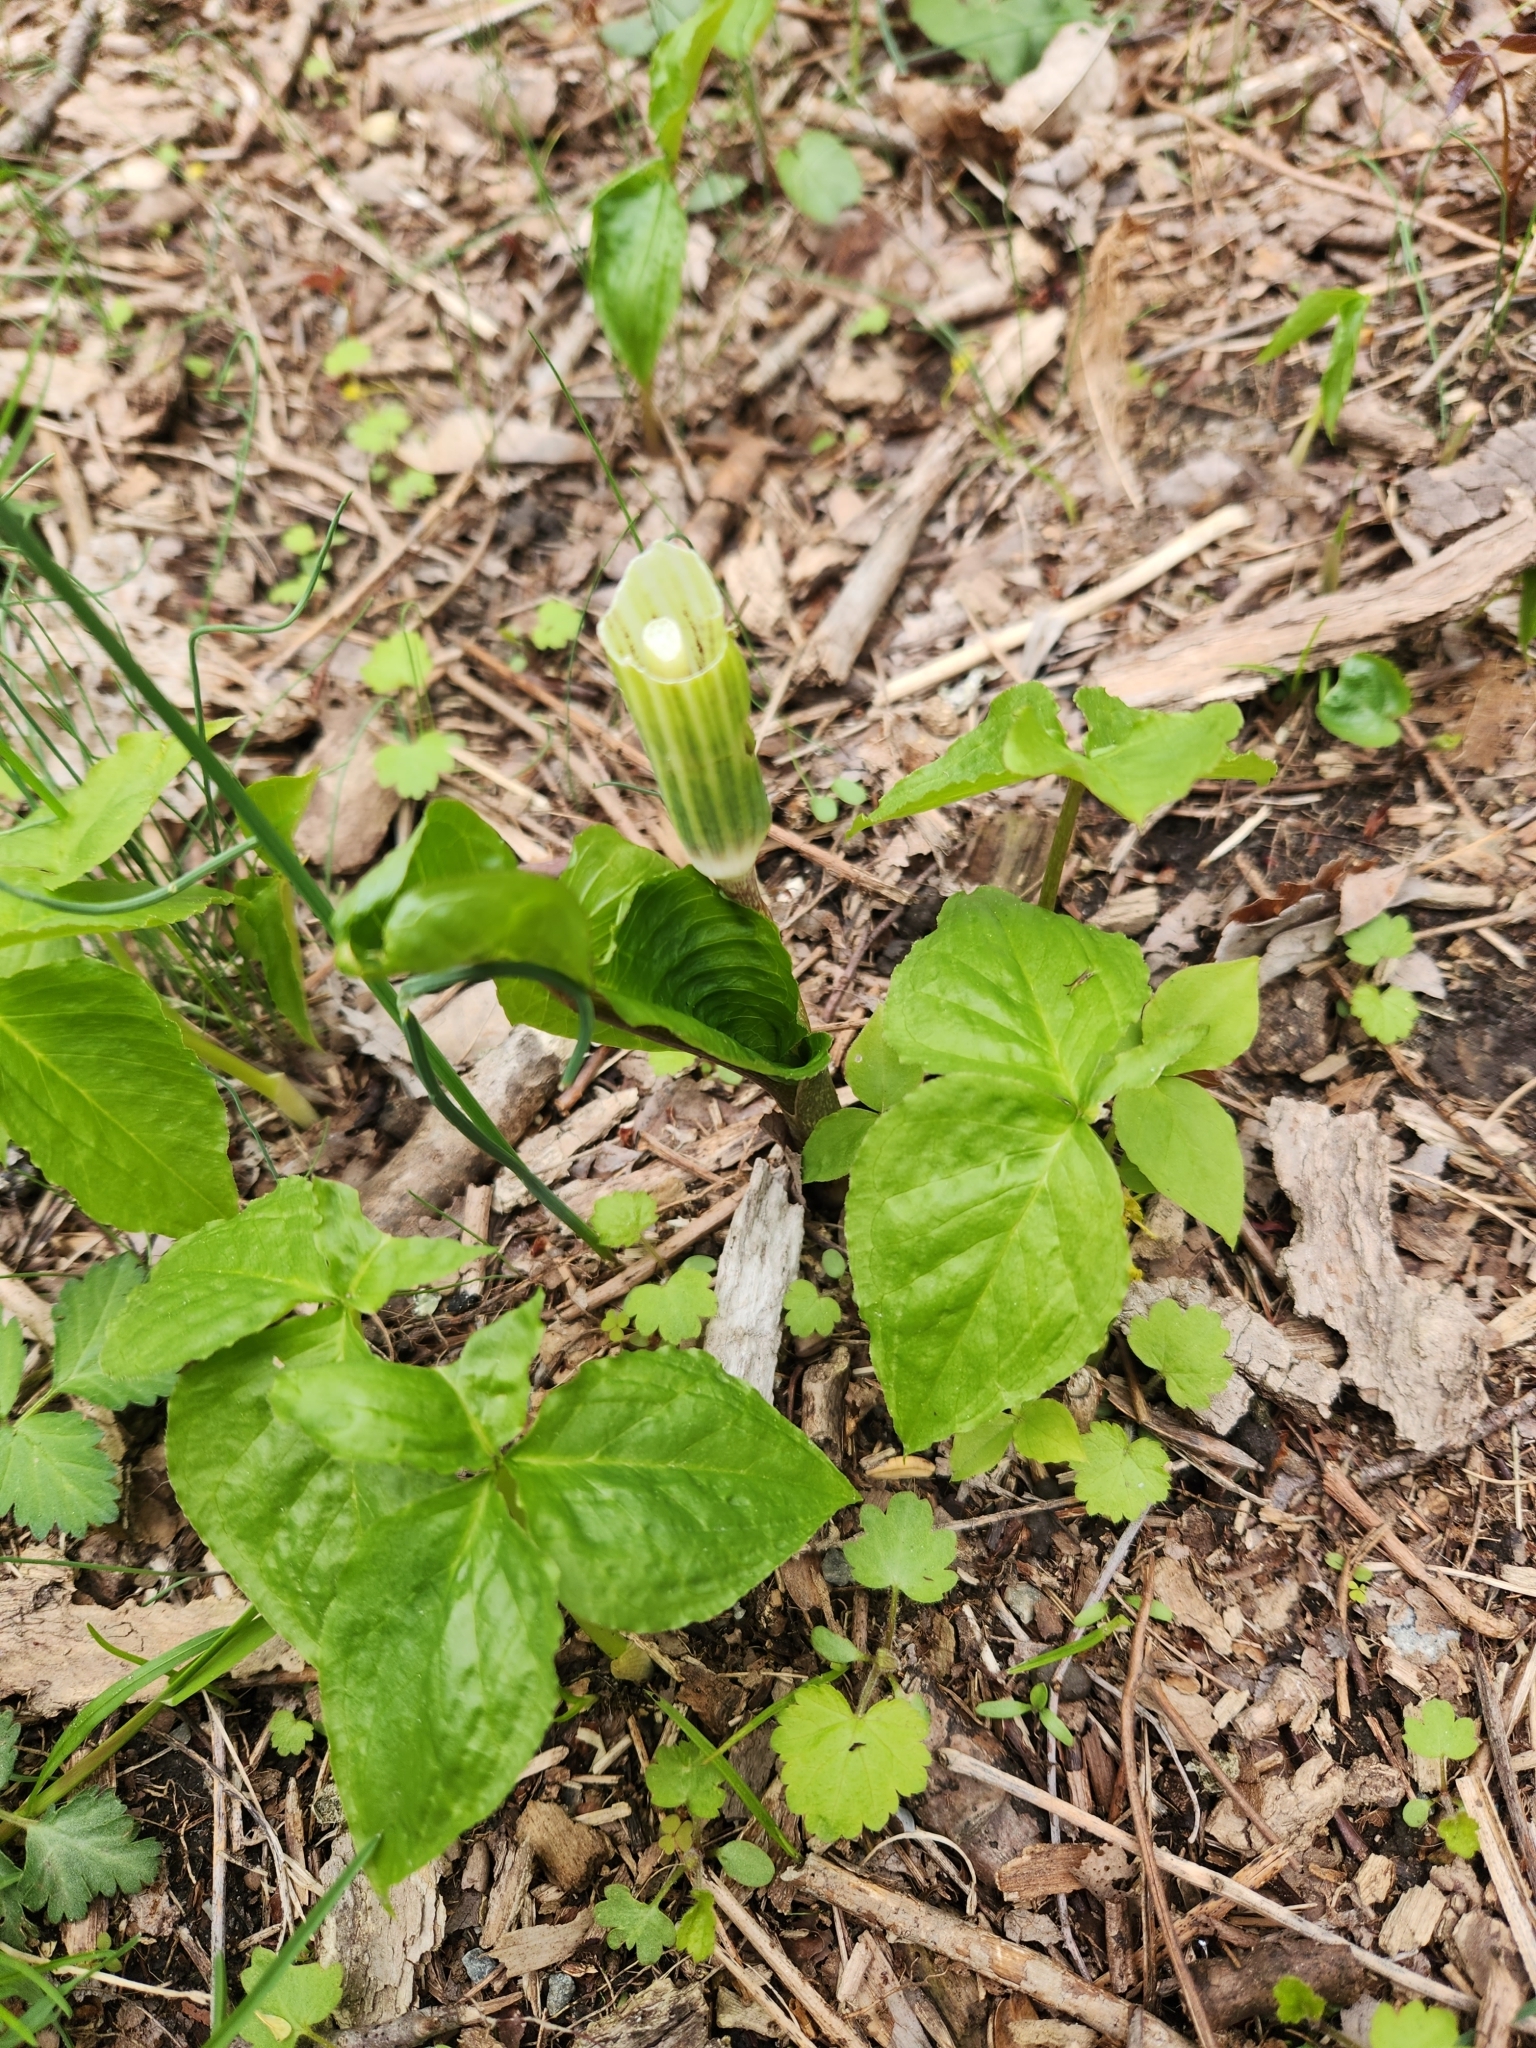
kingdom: Plantae
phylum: Tracheophyta
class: Liliopsida
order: Alismatales
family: Araceae
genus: Arisaema
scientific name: Arisaema triphyllum
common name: Jack-in-the-pulpit
